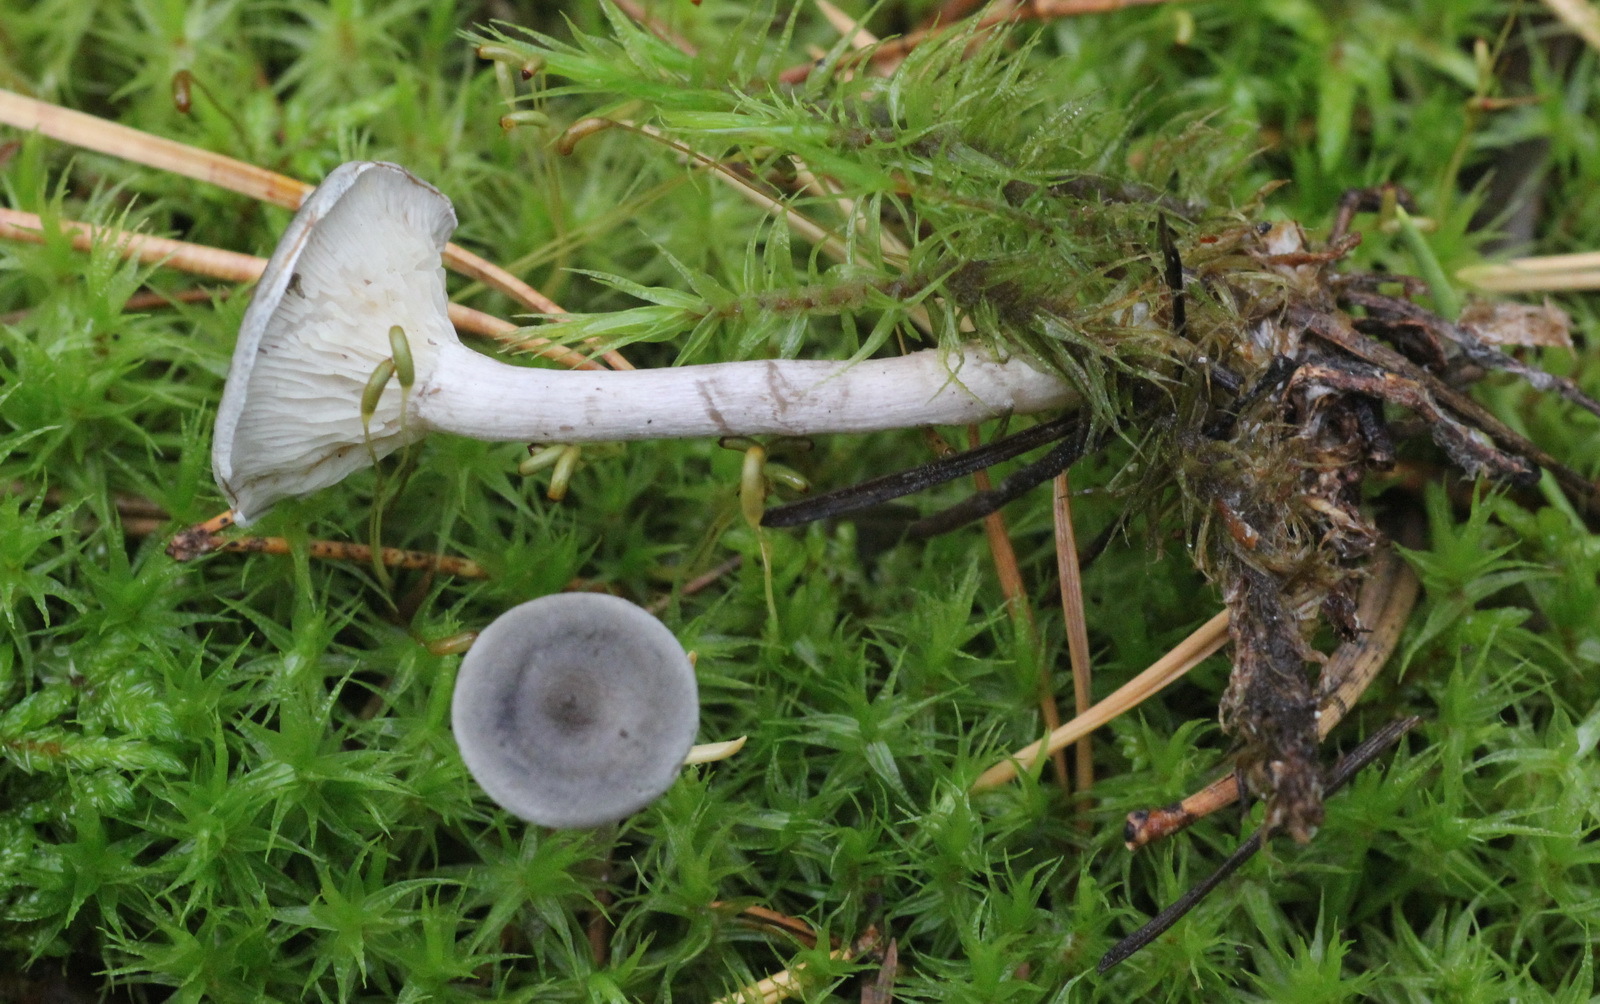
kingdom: Fungi
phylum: Basidiomycota
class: Agaricomycetes
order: Agaricales
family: Hygrophoraceae
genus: Cantharellula
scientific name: Cantharellula umbonata
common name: The humpback
